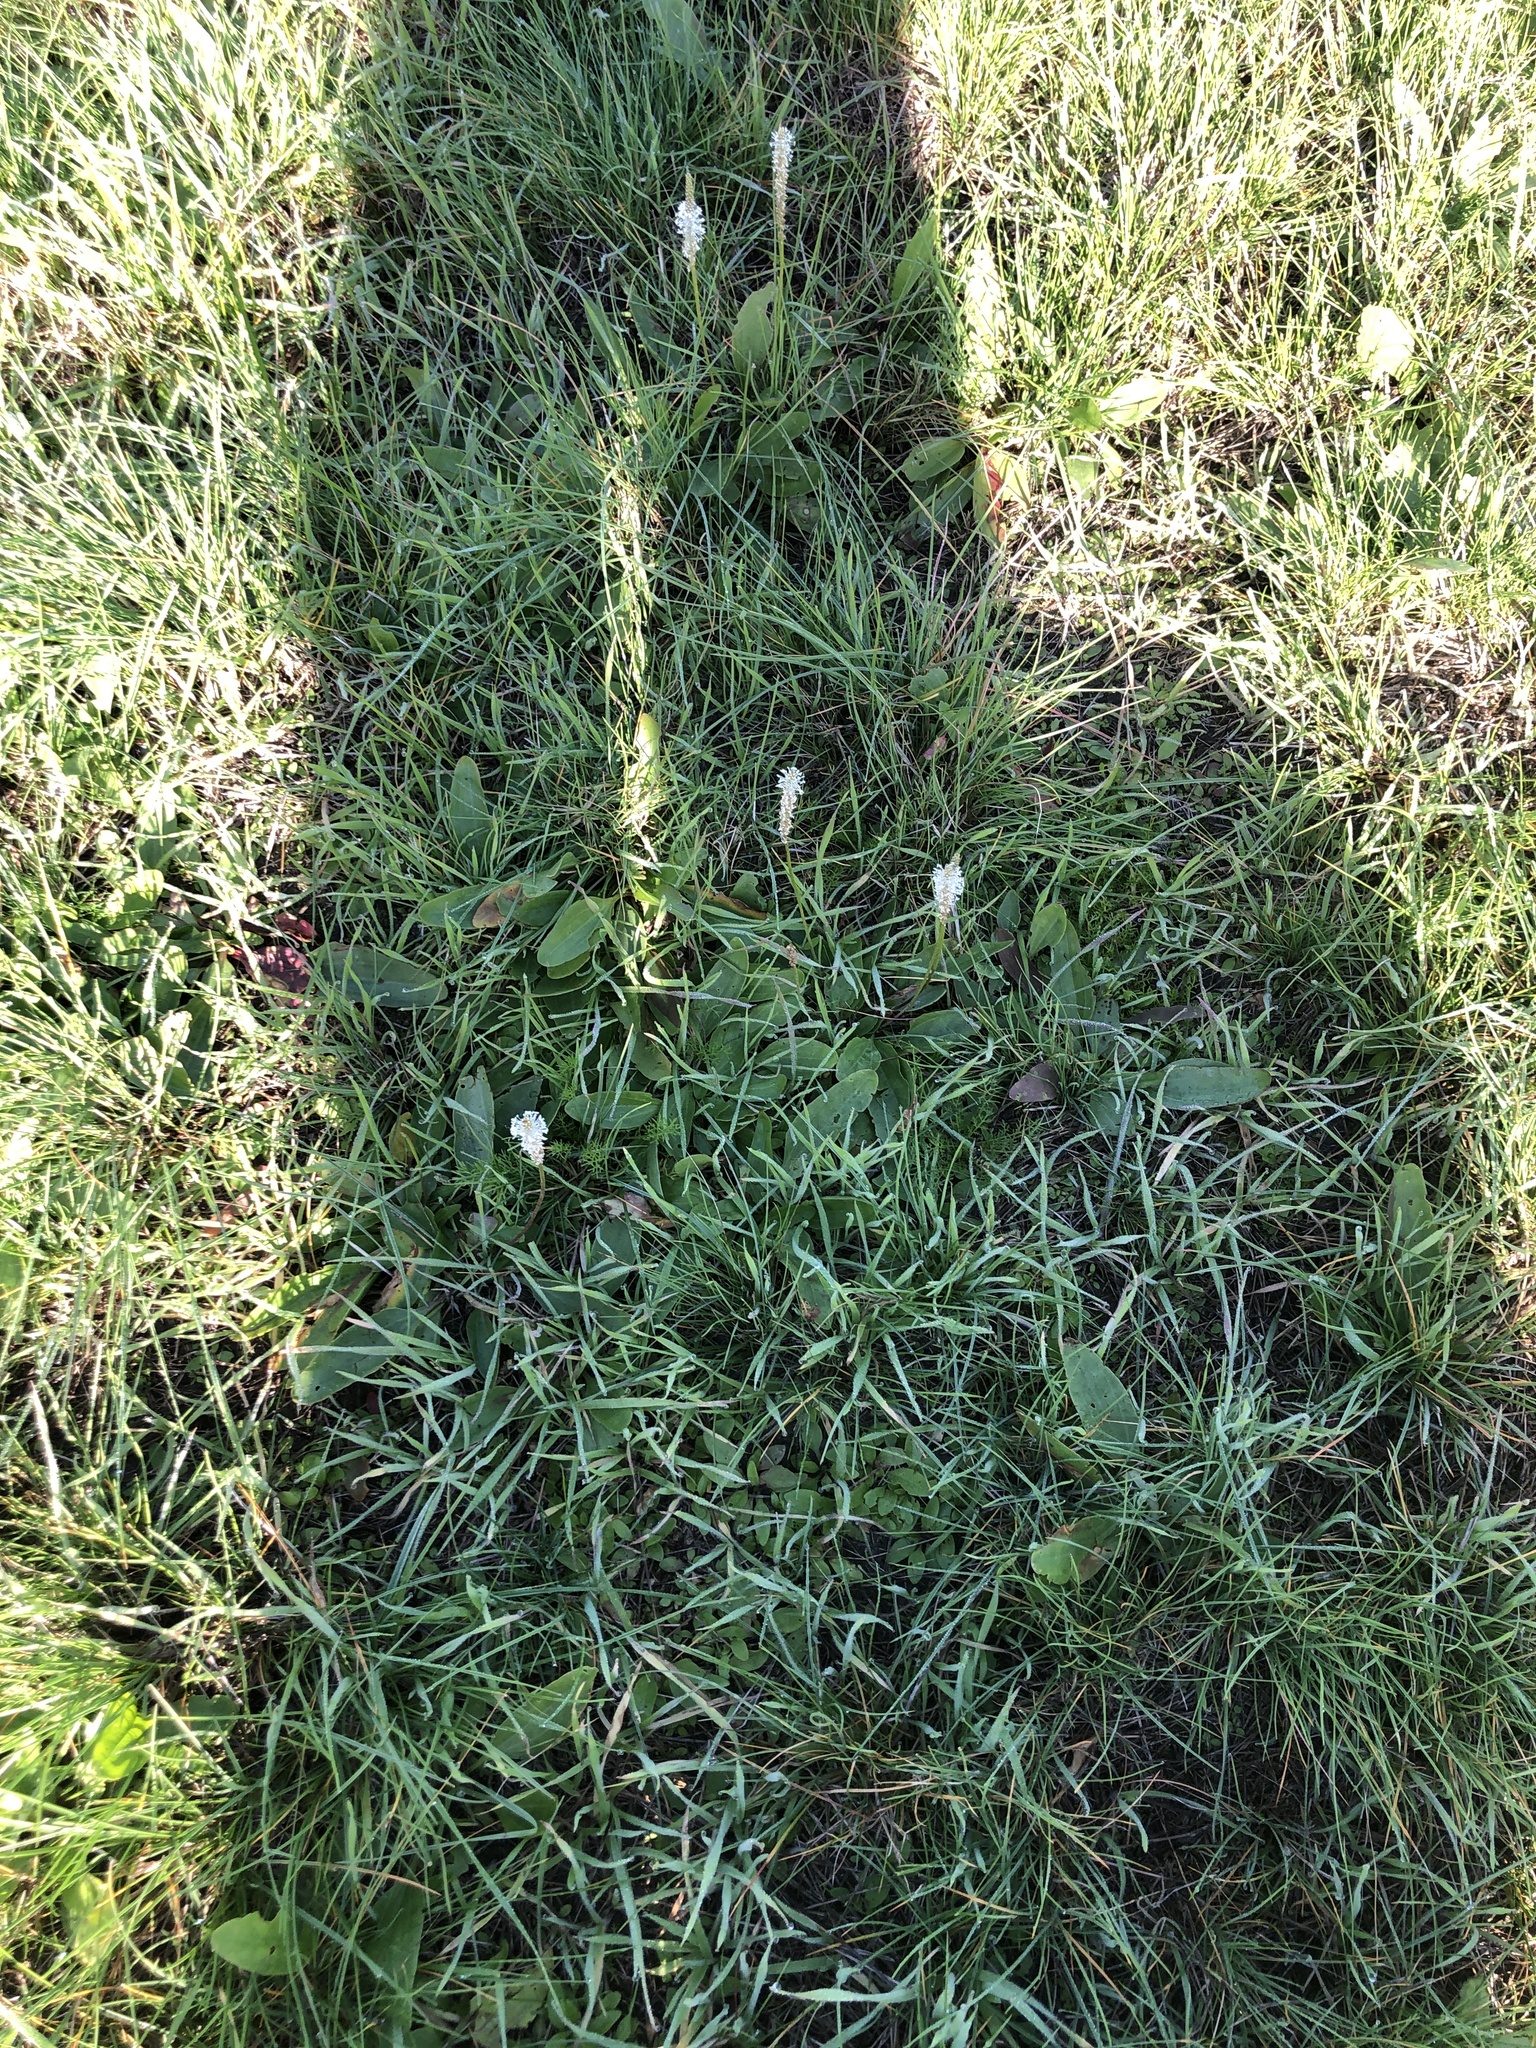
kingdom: Plantae
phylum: Tracheophyta
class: Magnoliopsida
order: Lamiales
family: Plantaginaceae
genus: Plantago
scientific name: Plantago schwarzenbergiana
